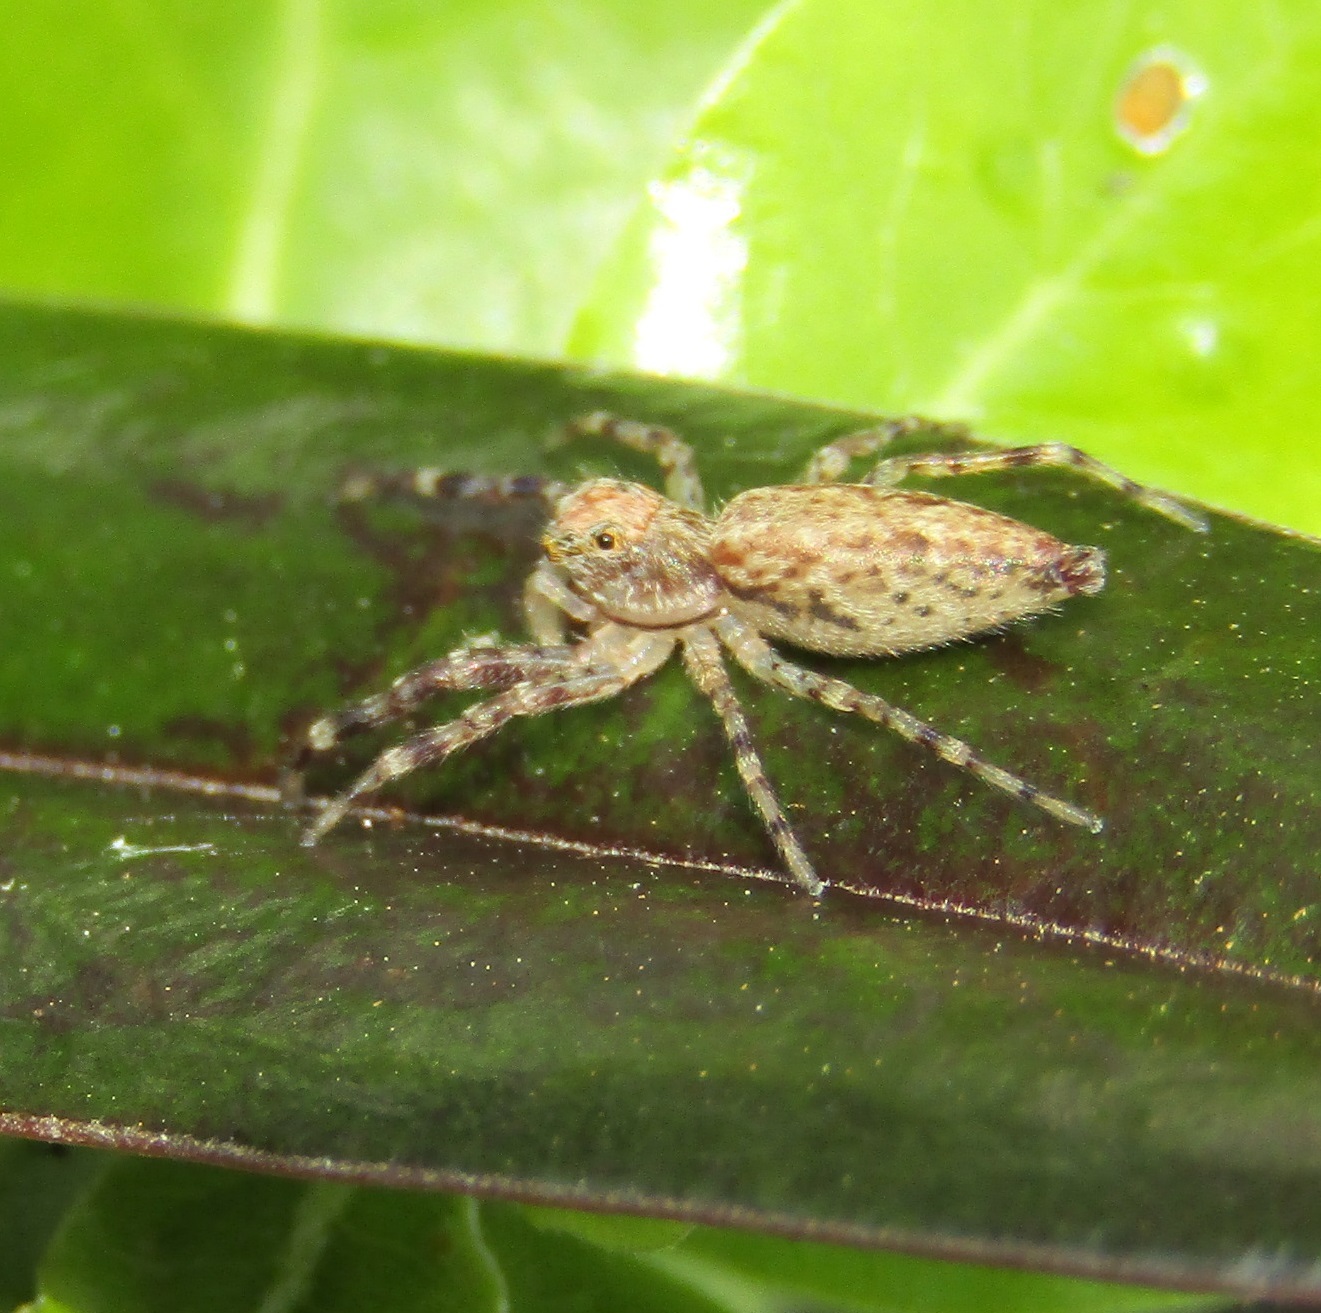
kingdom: Animalia
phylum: Arthropoda
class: Arachnida
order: Araneae
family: Salticidae
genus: Helpis
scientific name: Helpis minitabunda
